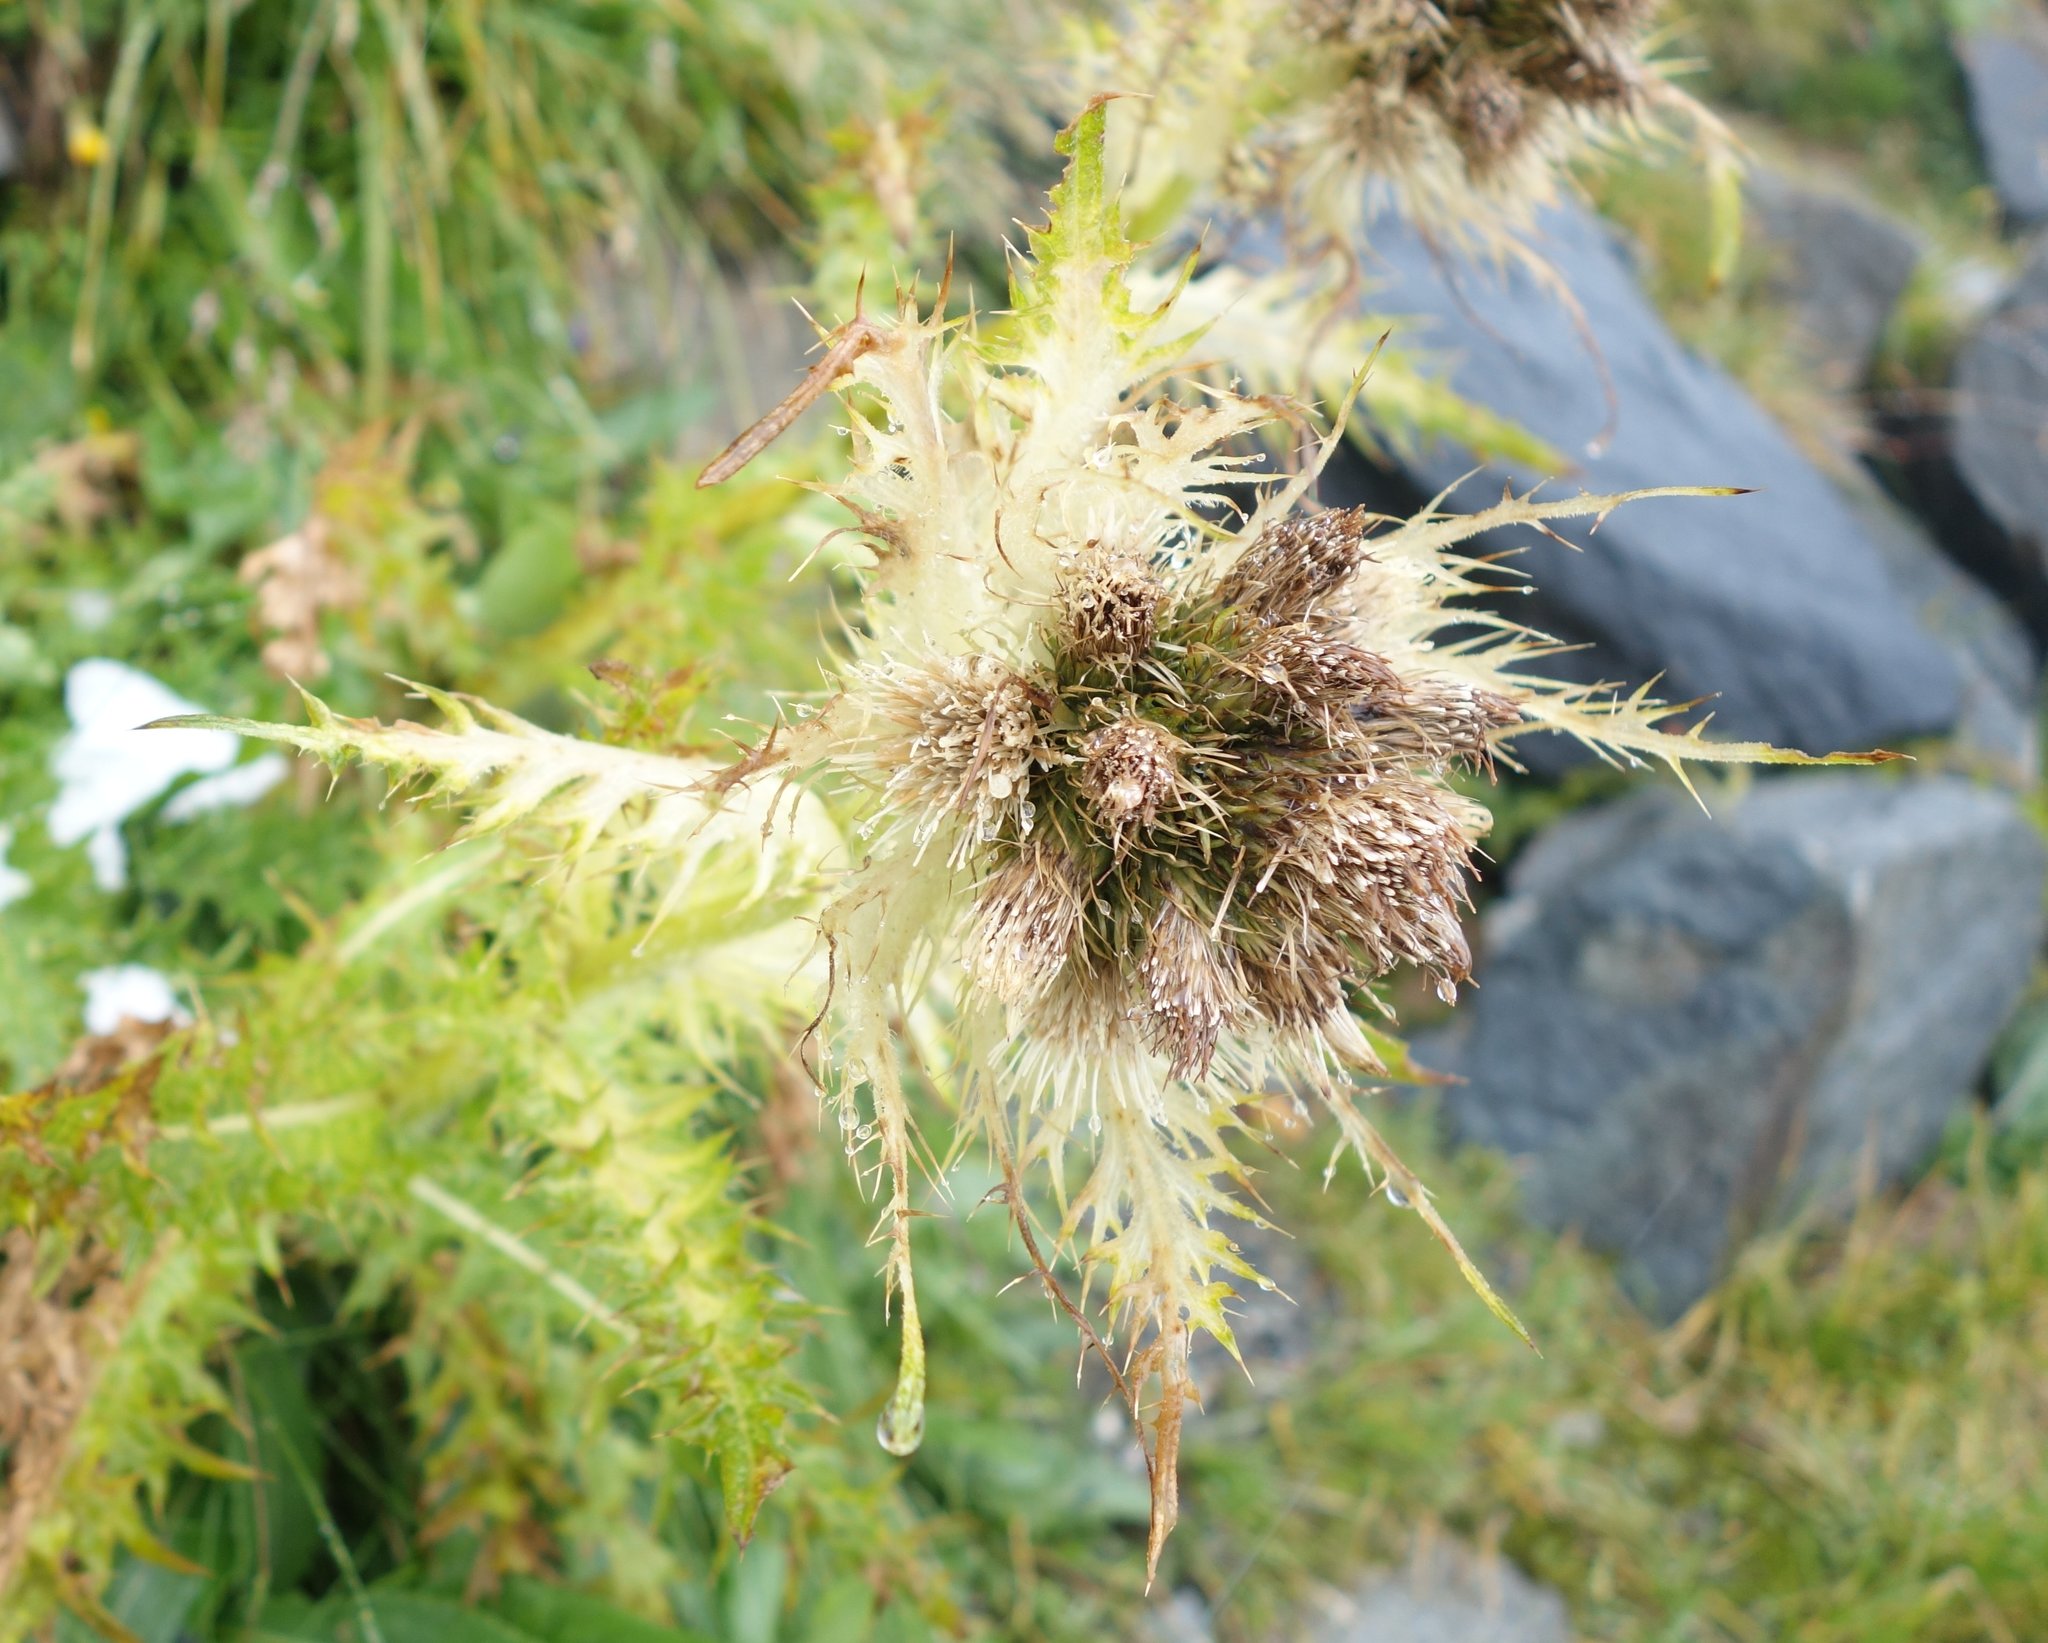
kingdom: Plantae
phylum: Tracheophyta
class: Magnoliopsida
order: Asterales
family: Asteraceae
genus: Cirsium
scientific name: Cirsium spinosissimum
